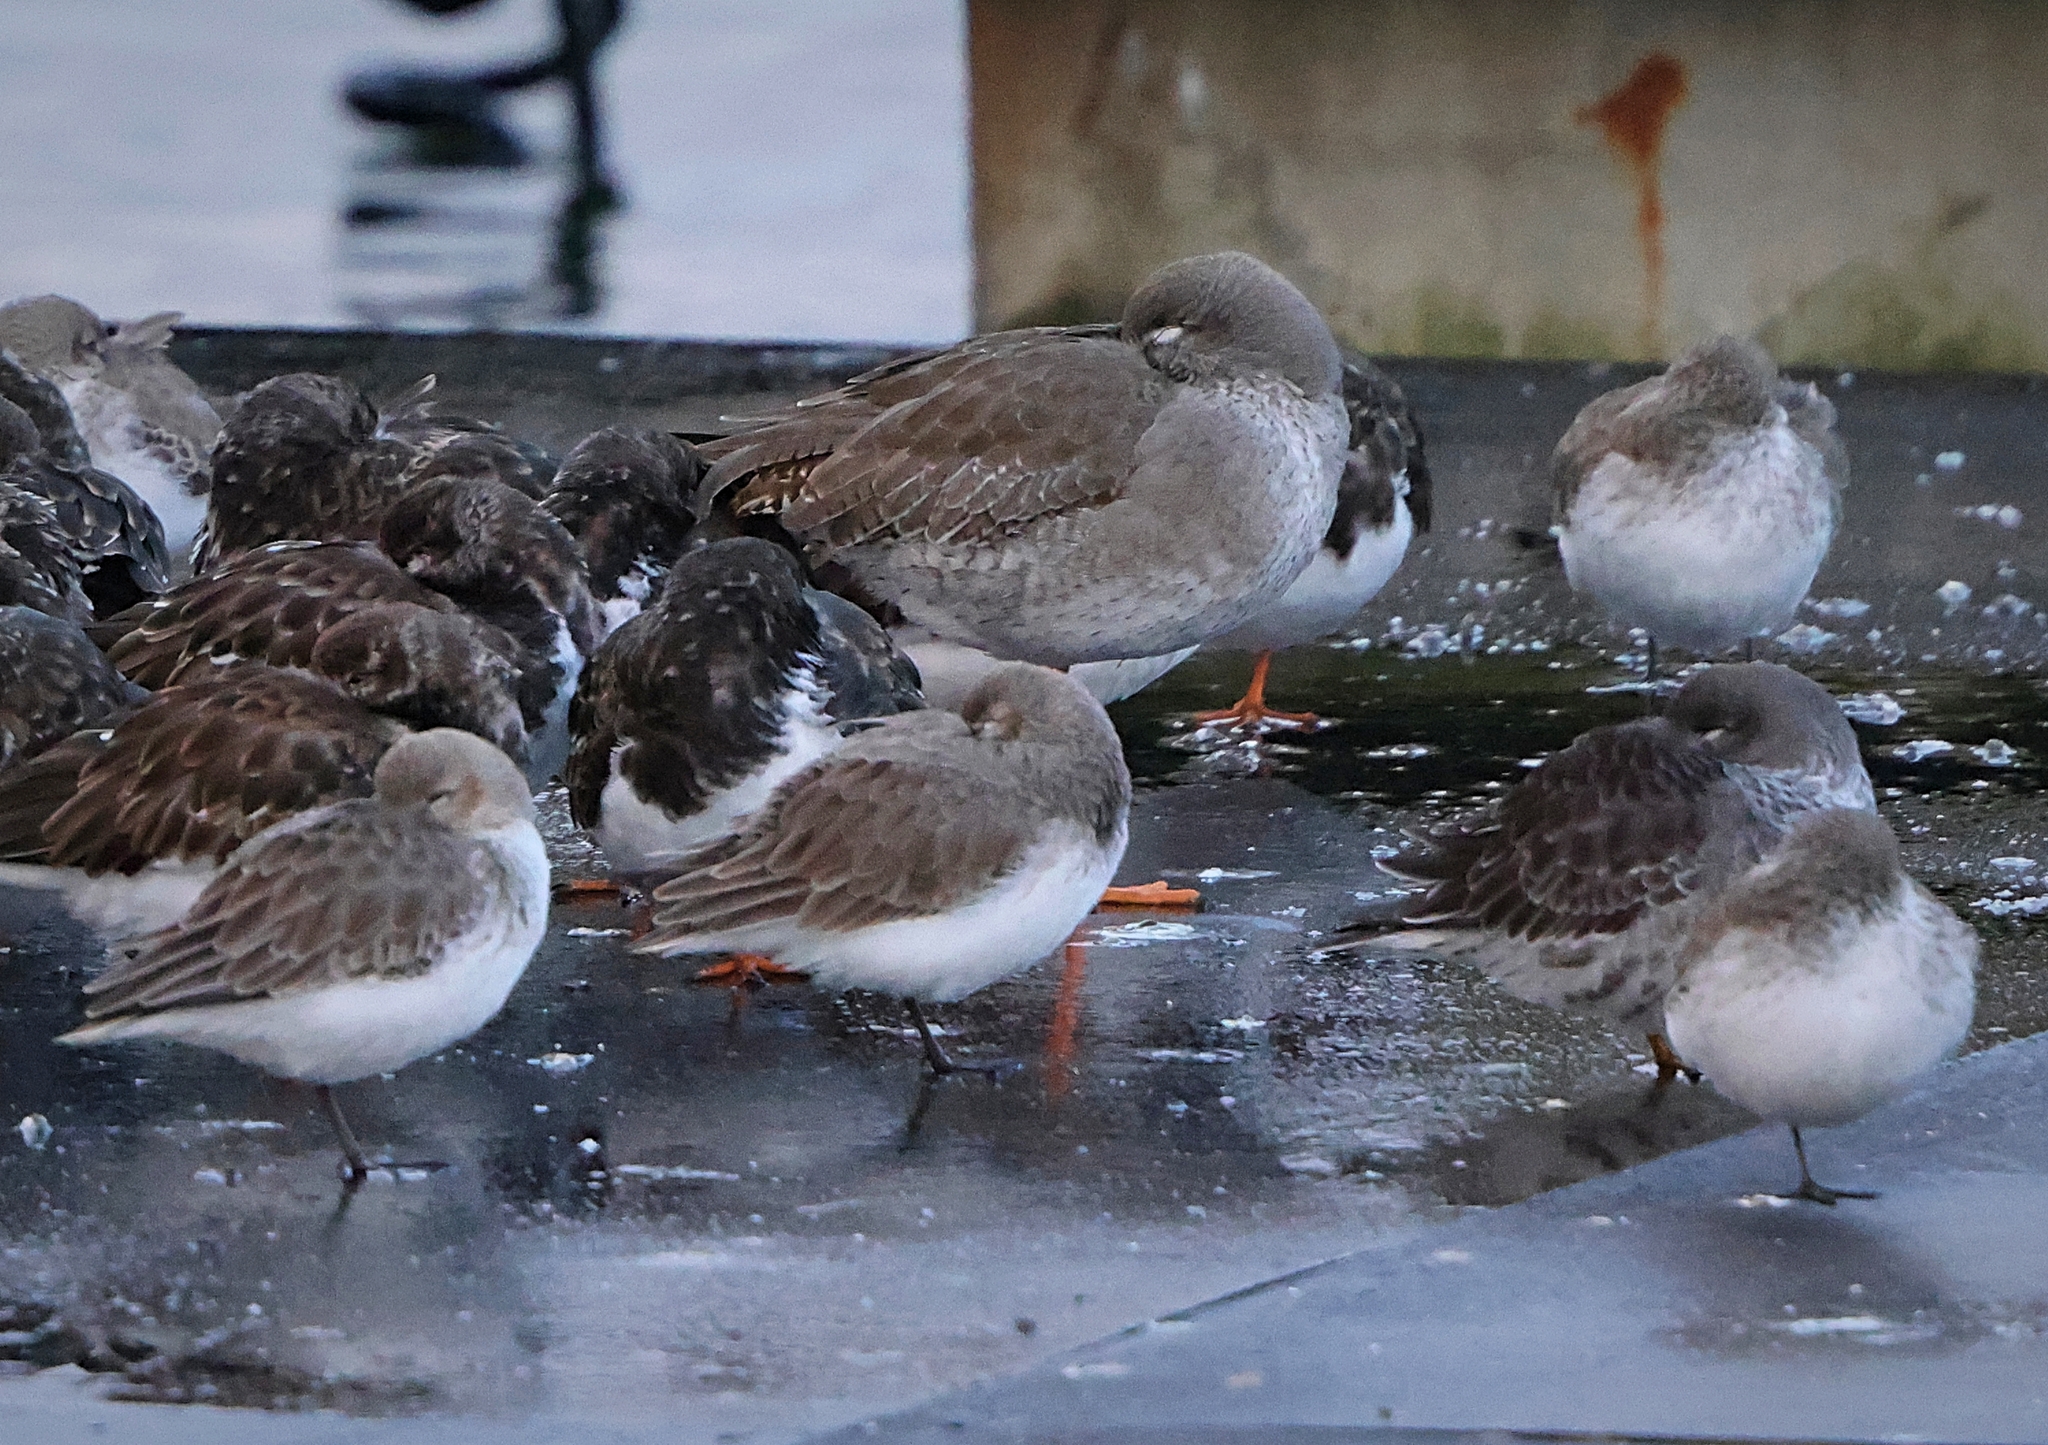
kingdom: Animalia
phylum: Chordata
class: Aves
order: Charadriiformes
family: Scolopacidae
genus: Calidris
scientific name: Calidris alpina
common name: Dunlin
